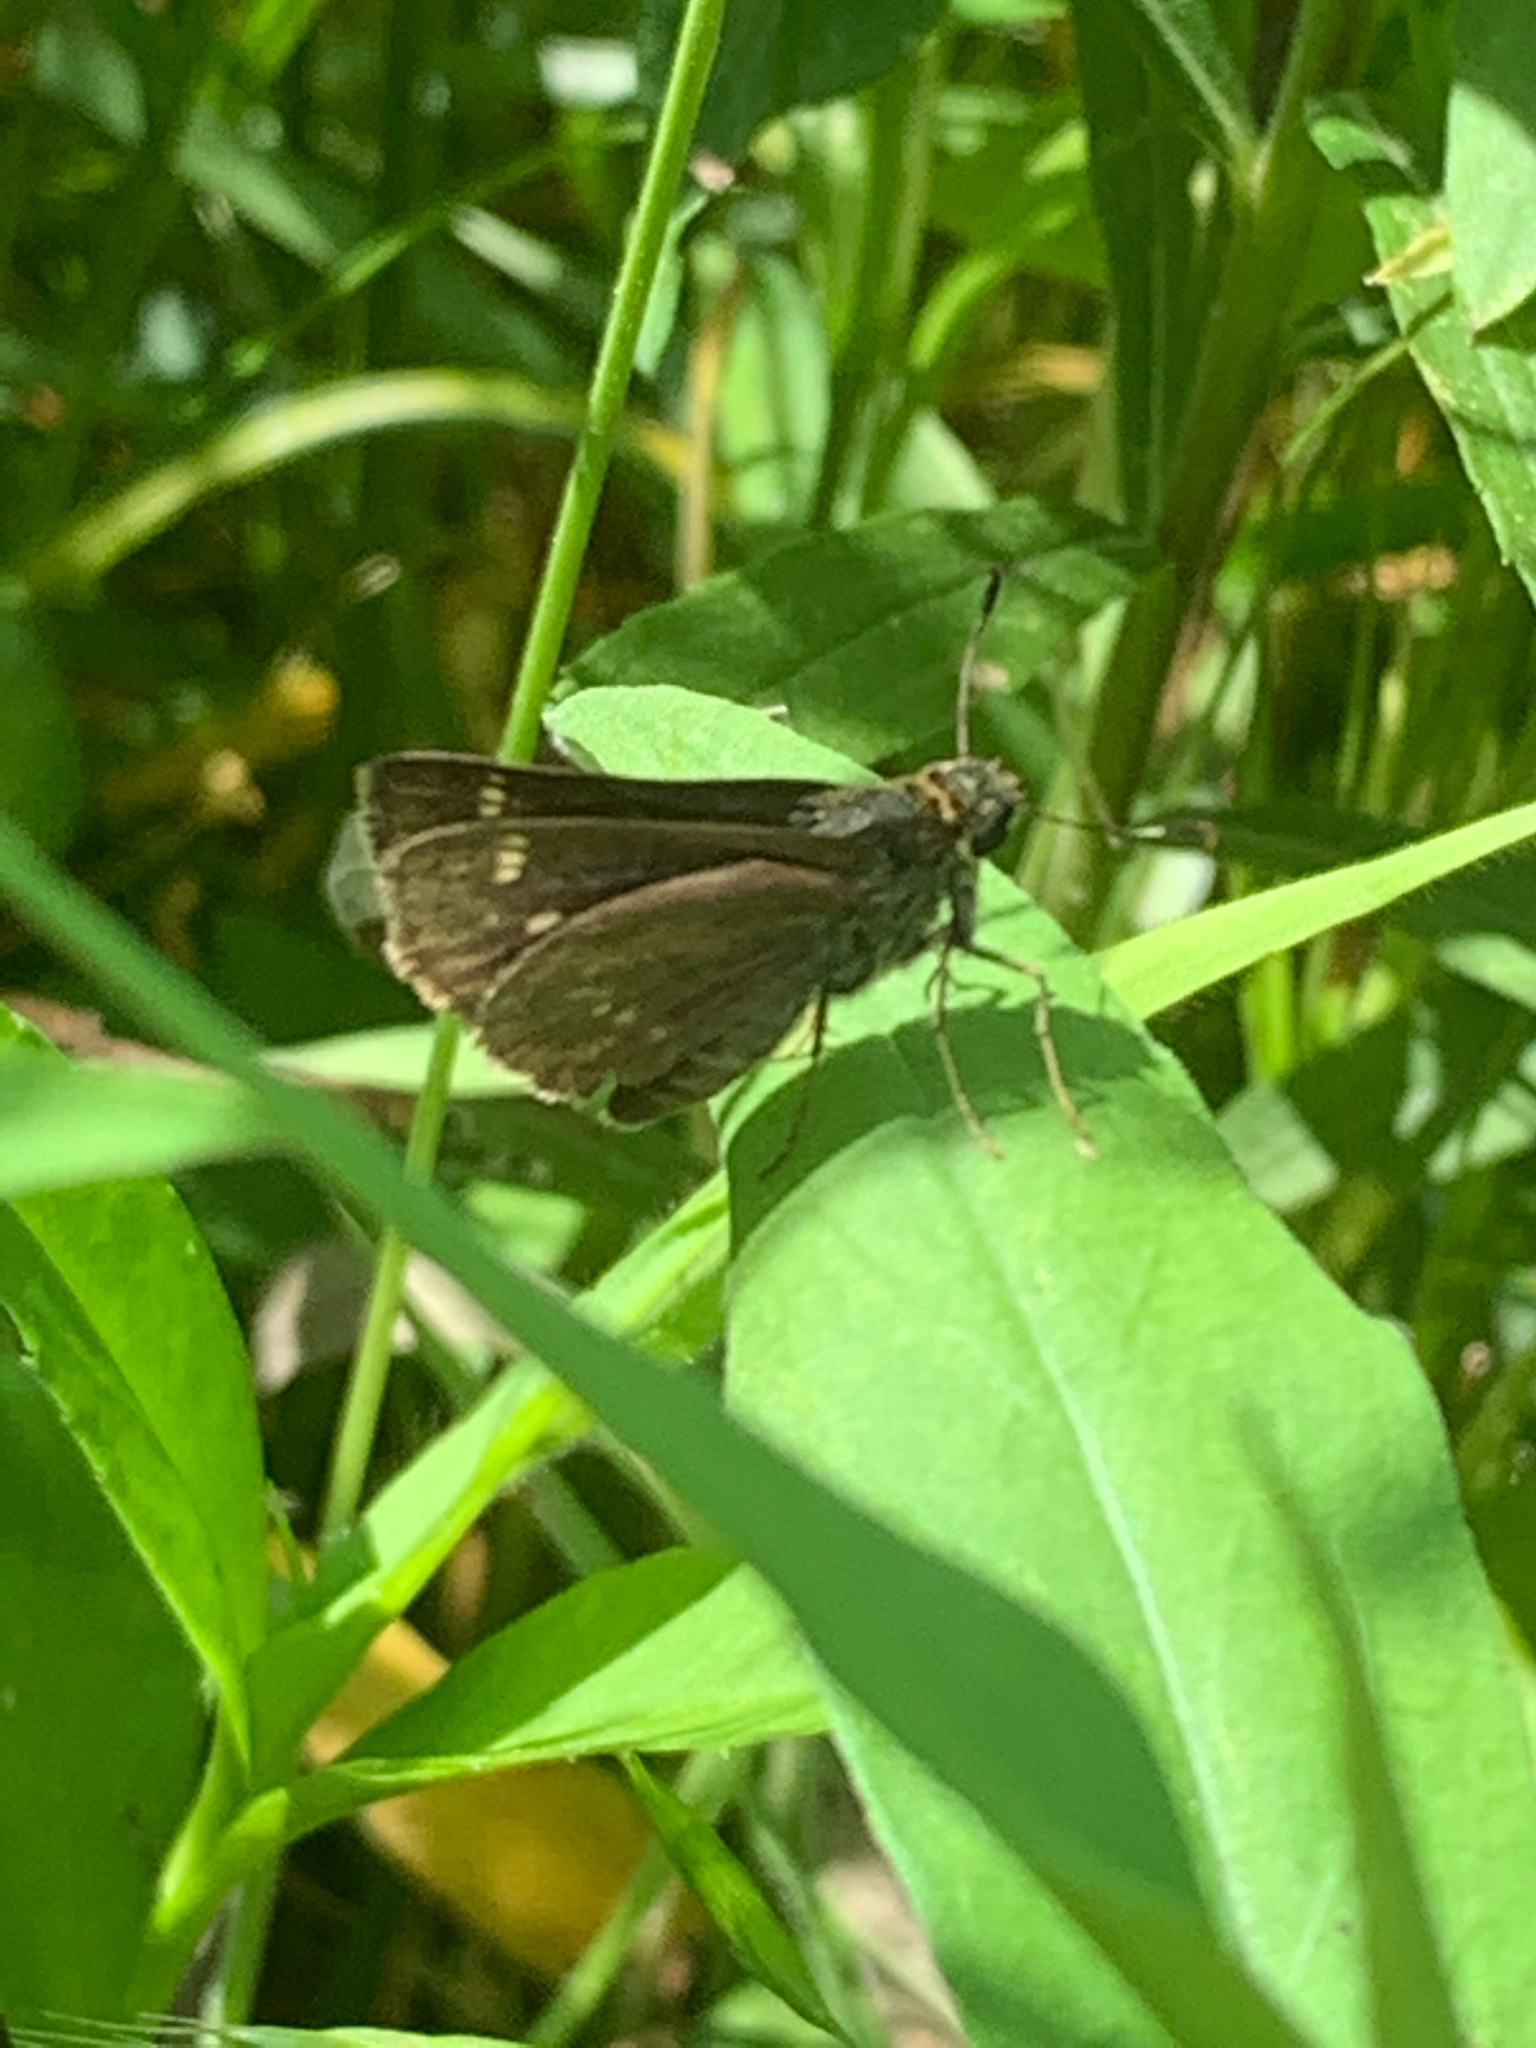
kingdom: Animalia
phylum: Arthropoda
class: Insecta
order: Lepidoptera
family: Hesperiidae
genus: Vernia
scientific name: Vernia verna
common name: Little glassywing
